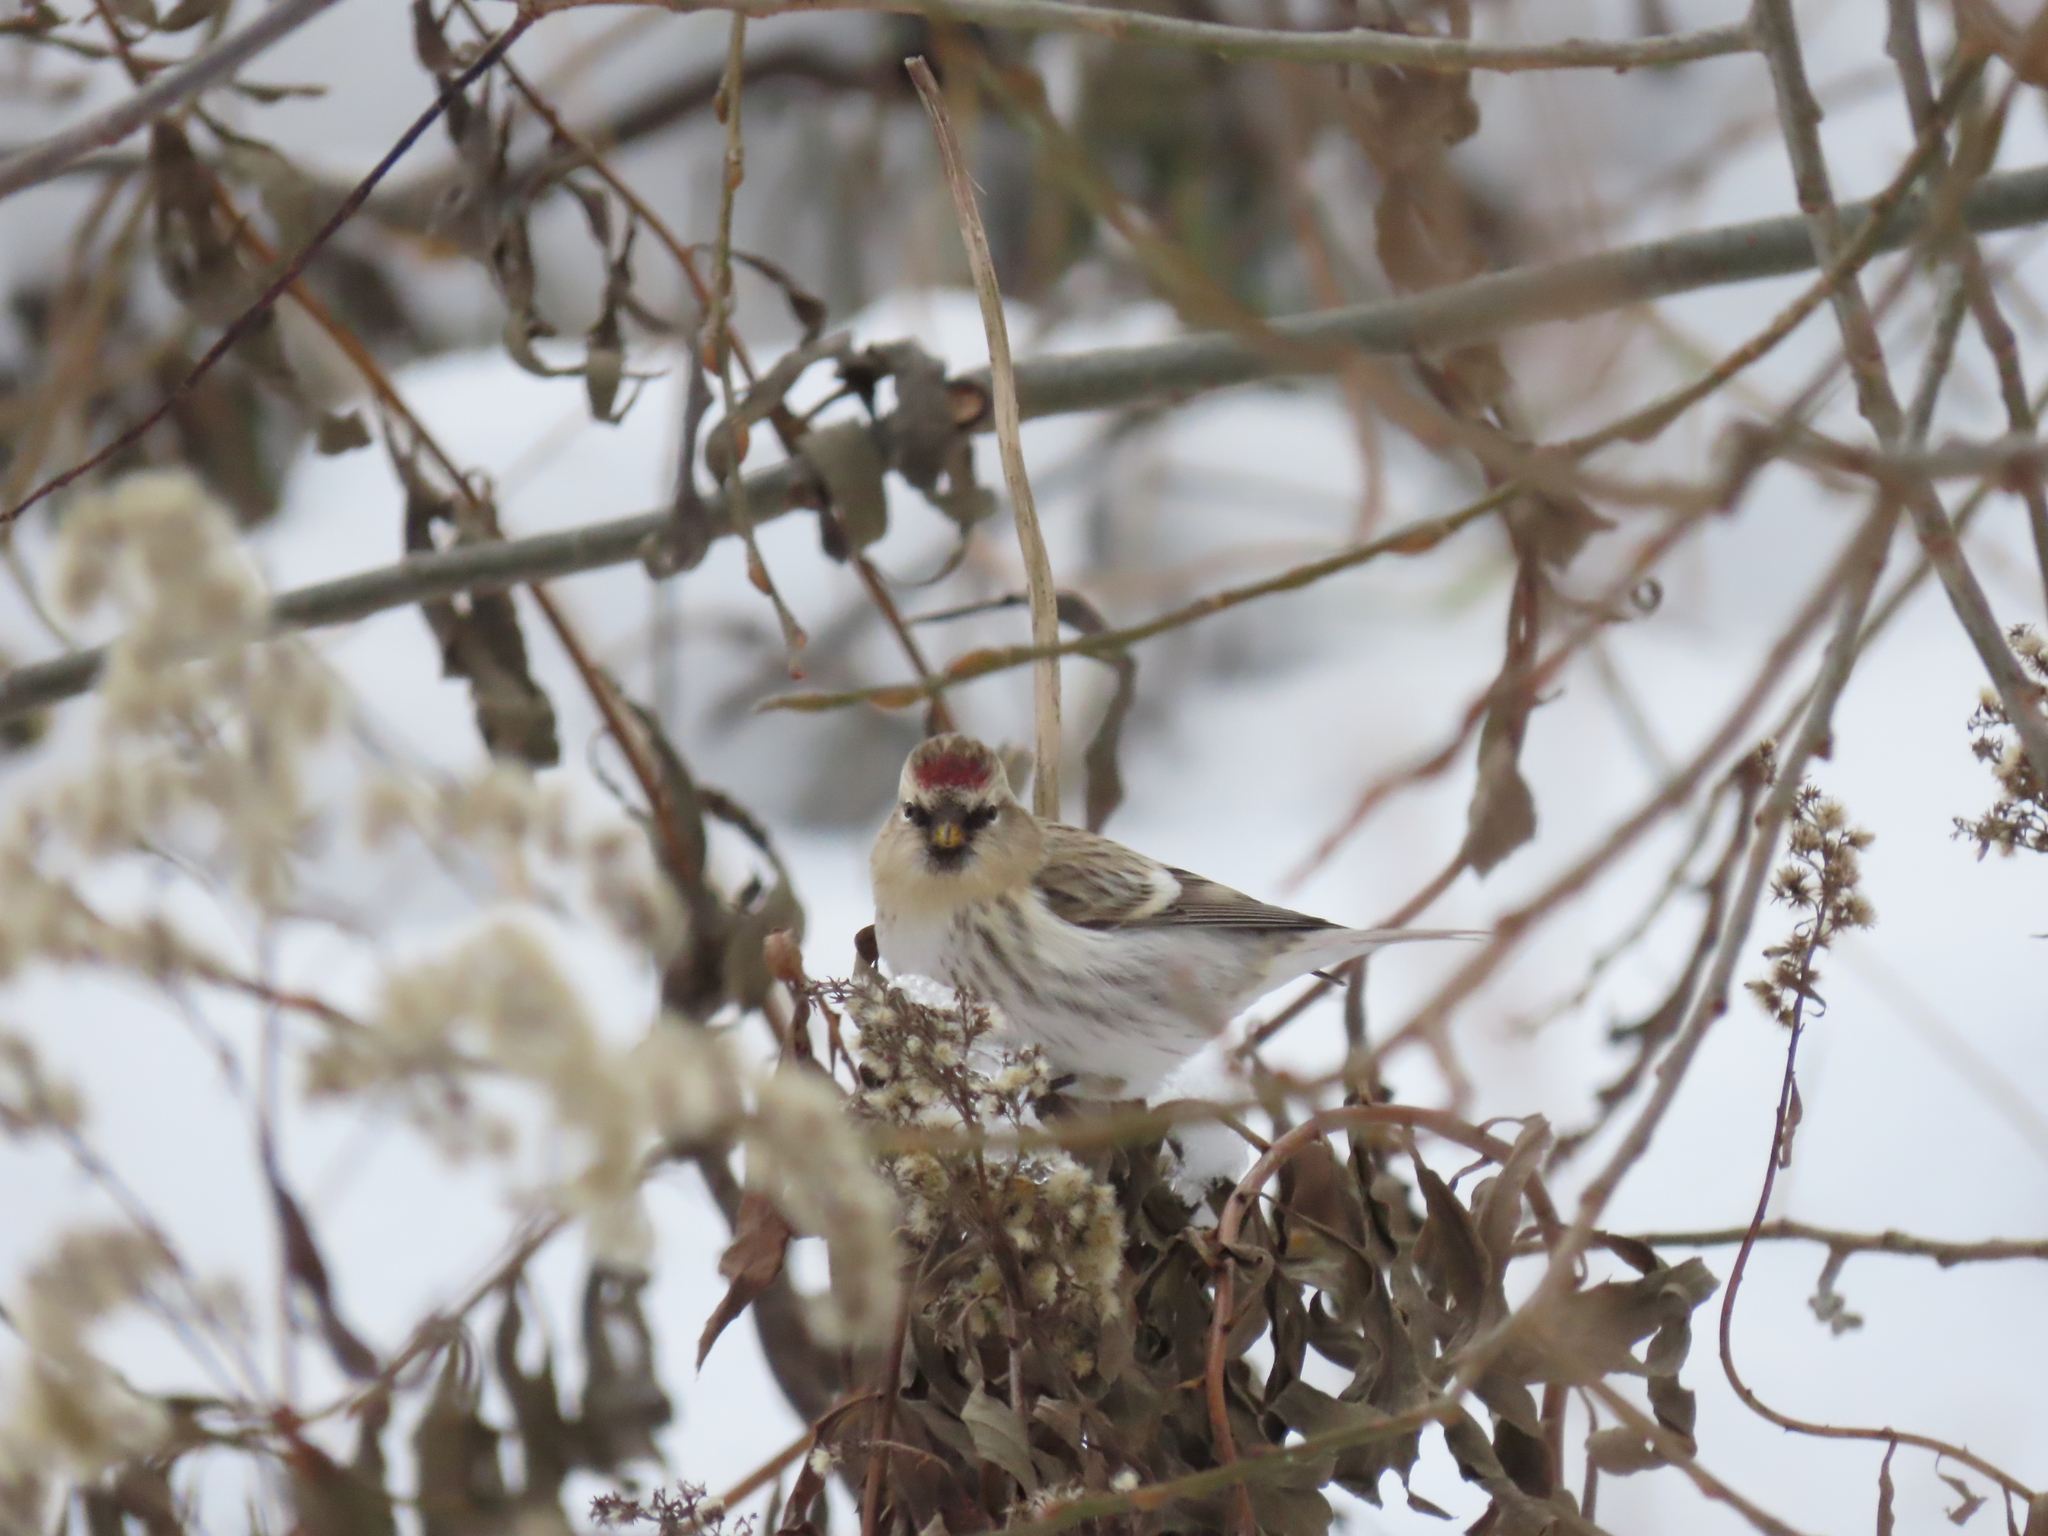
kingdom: Animalia
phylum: Chordata
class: Aves
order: Passeriformes
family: Fringillidae
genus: Acanthis
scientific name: Acanthis flammea
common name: Common redpoll
